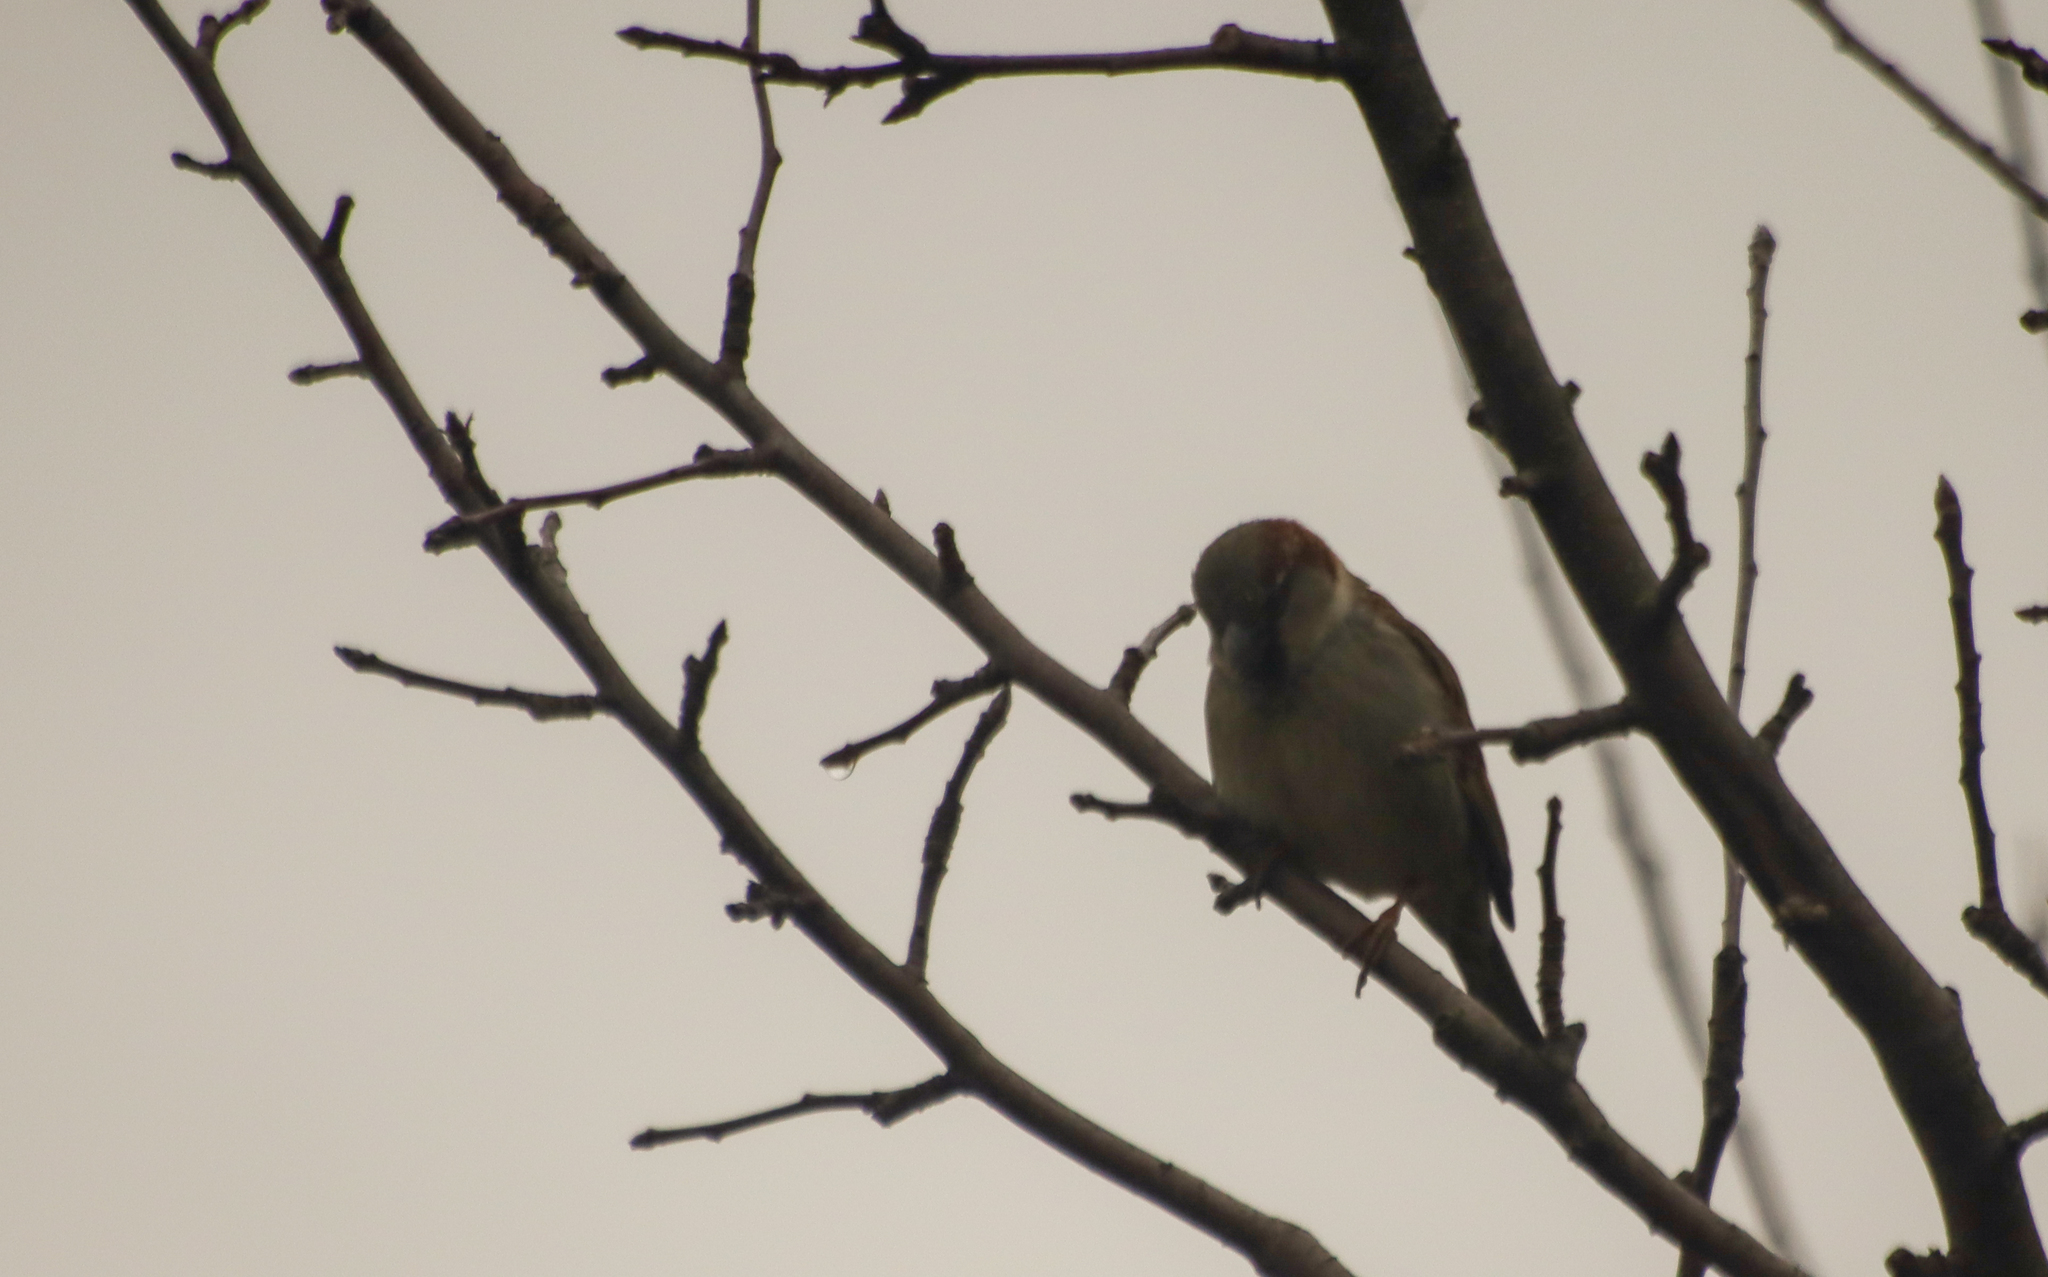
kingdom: Animalia
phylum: Chordata
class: Aves
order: Passeriformes
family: Passeridae
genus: Passer
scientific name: Passer domesticus
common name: House sparrow
